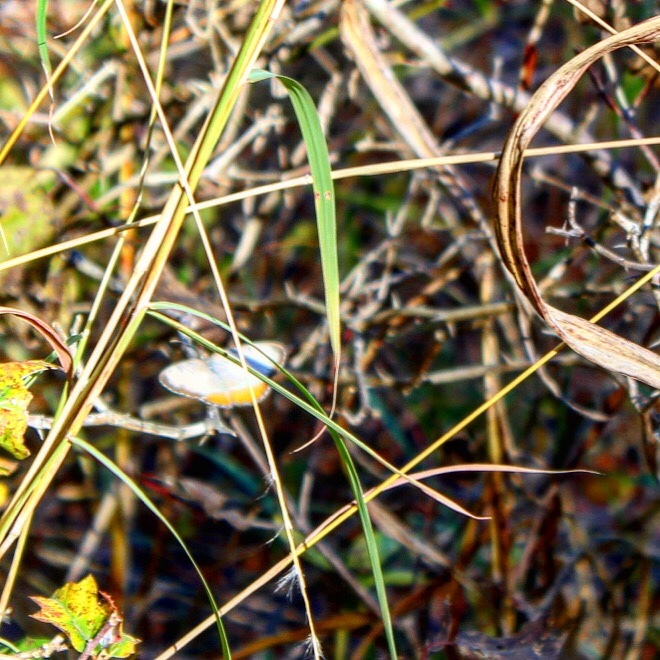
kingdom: Animalia
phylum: Arthropoda
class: Insecta
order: Lepidoptera
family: Nymphalidae
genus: Mestra
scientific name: Mestra amymone
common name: Common mestra
